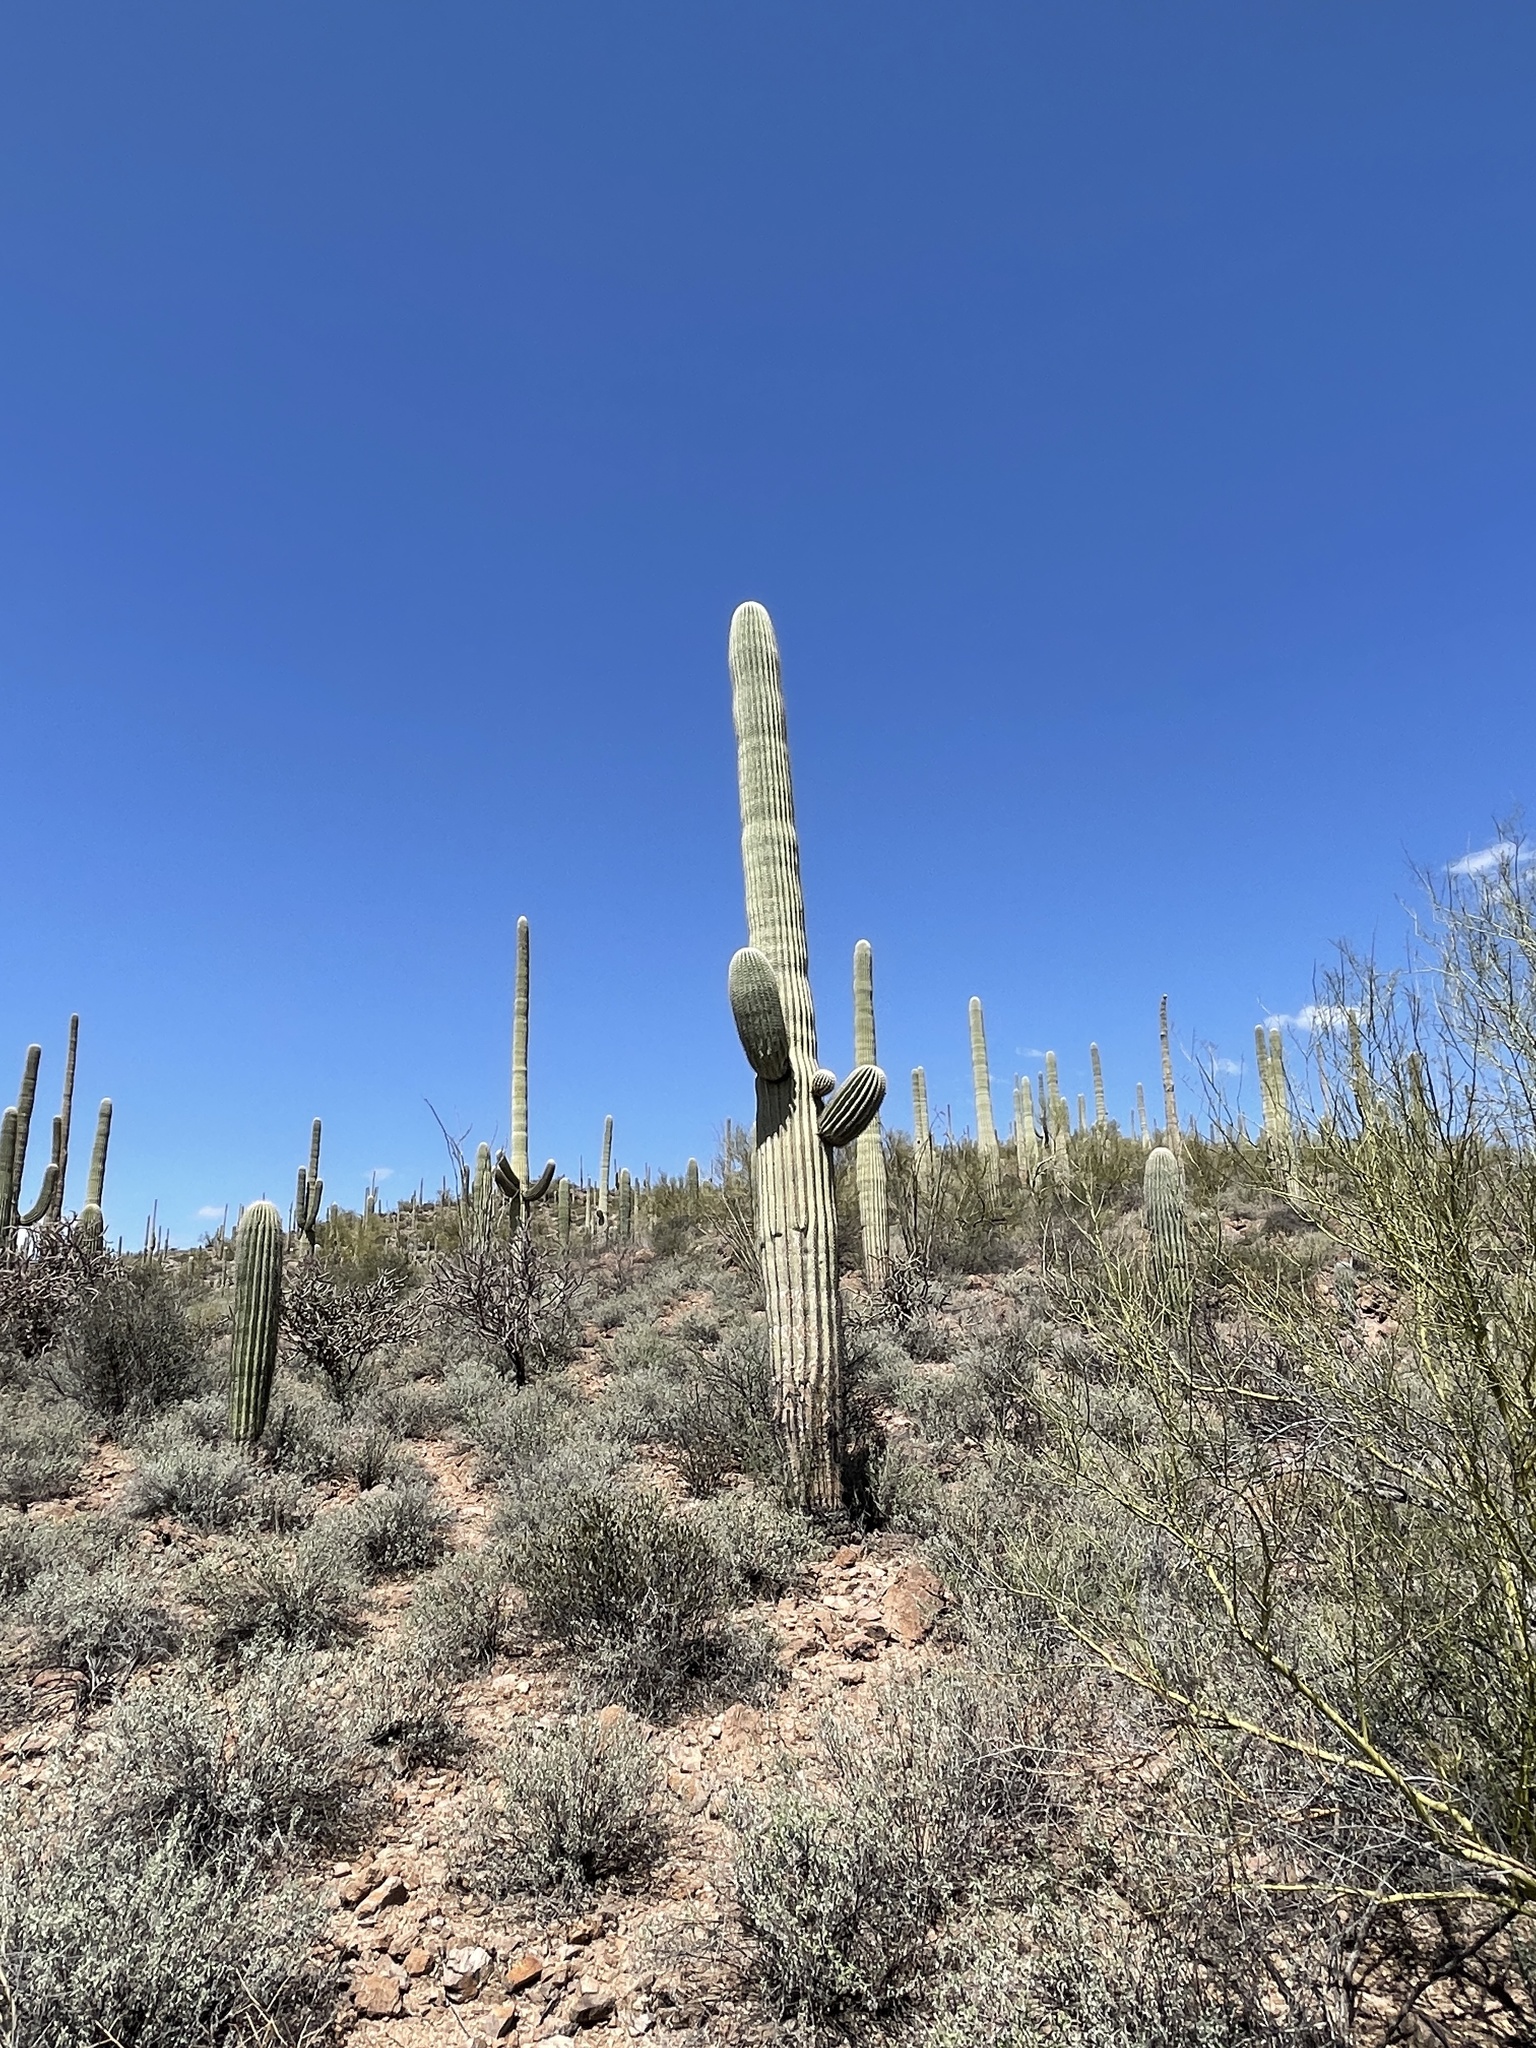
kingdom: Plantae
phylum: Tracheophyta
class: Magnoliopsida
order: Caryophyllales
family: Cactaceae
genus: Carnegiea
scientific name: Carnegiea gigantea
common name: Saguaro
